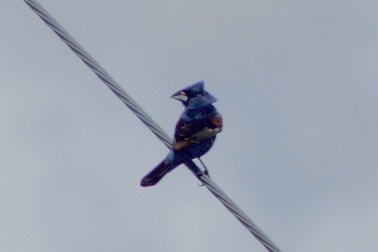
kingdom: Animalia
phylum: Chordata
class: Aves
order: Passeriformes
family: Cardinalidae
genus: Passerina
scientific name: Passerina caerulea
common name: Blue grosbeak
